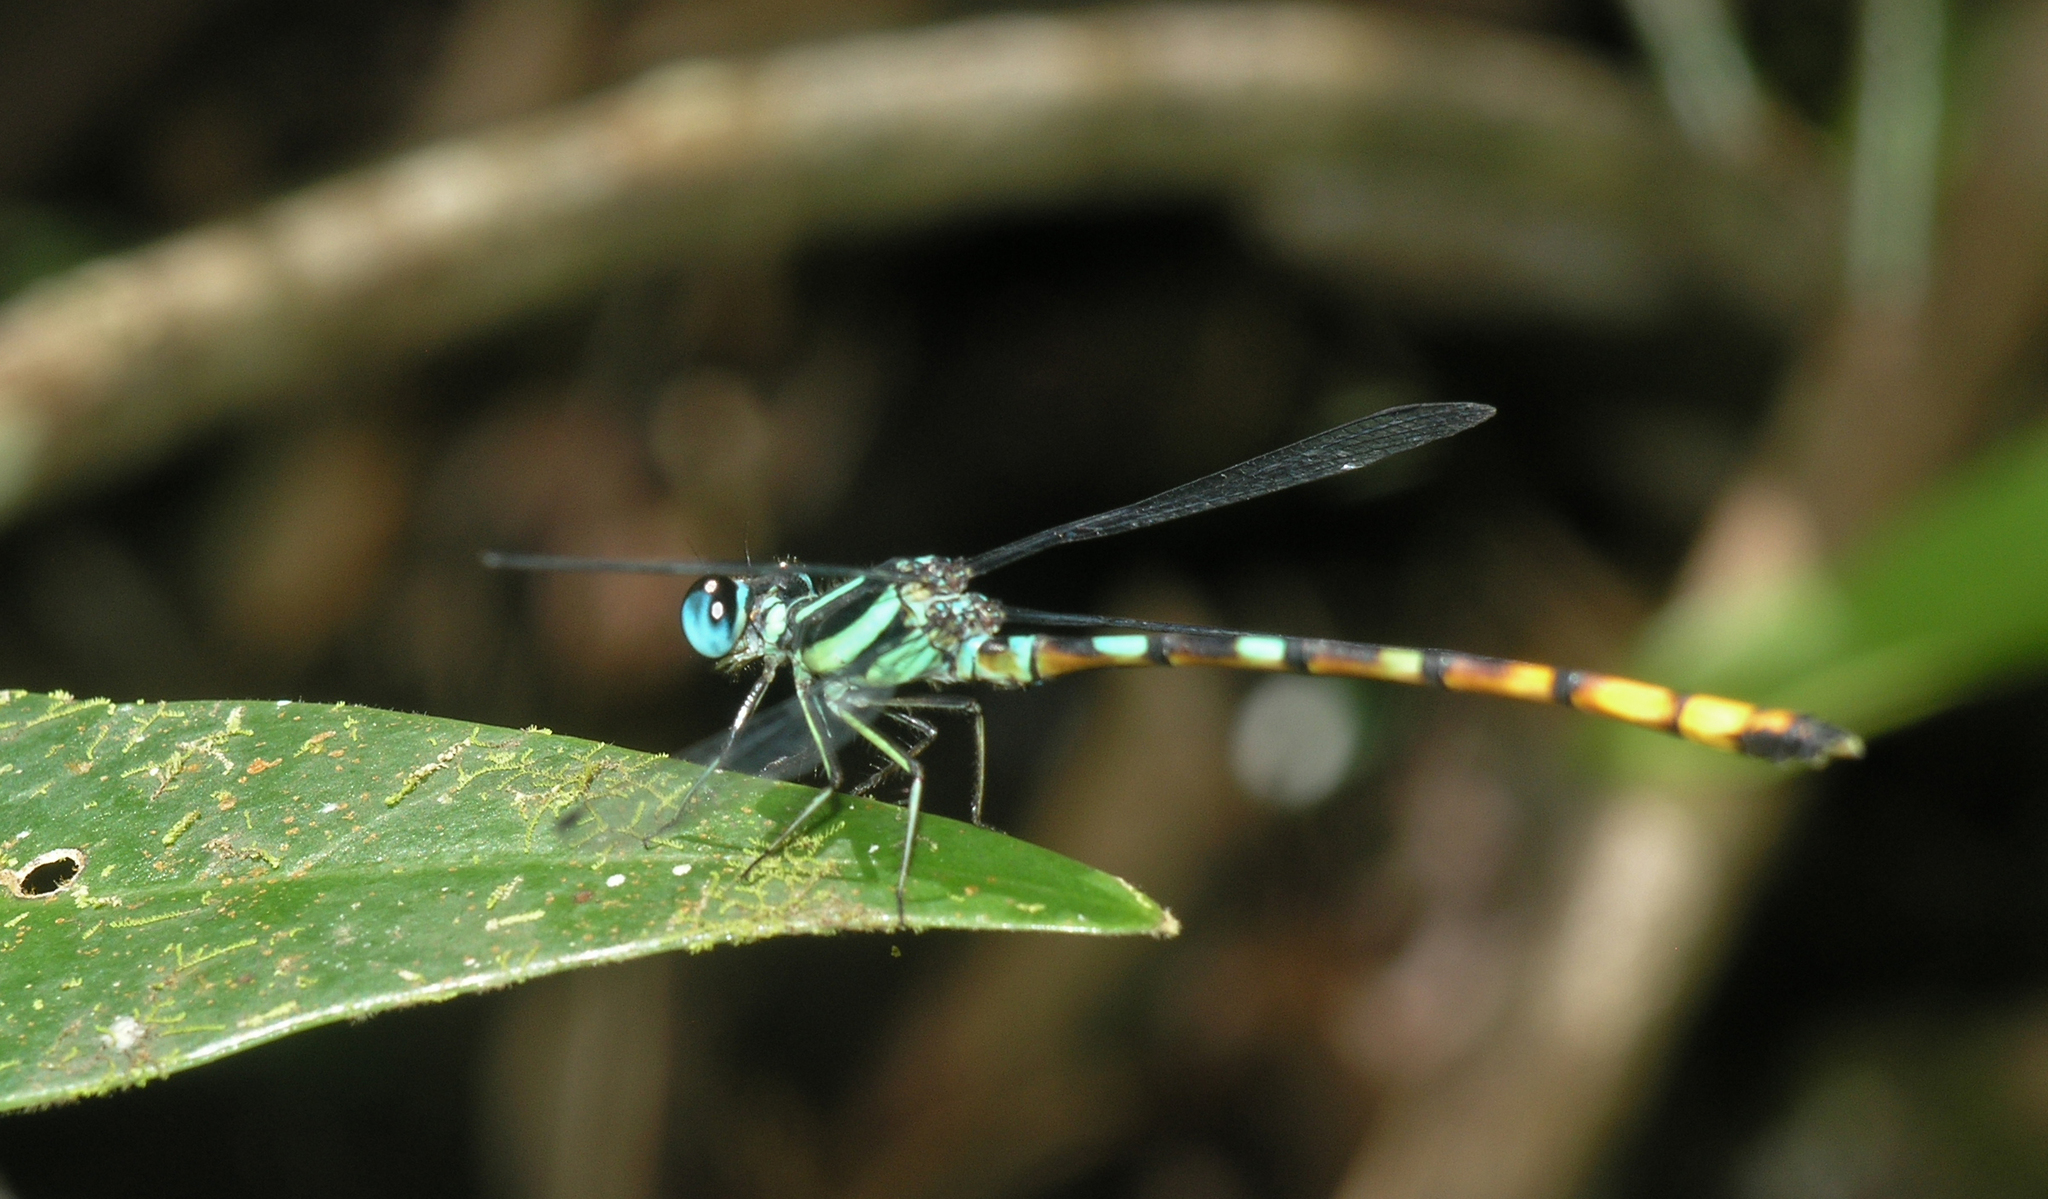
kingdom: Animalia
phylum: Arthropoda
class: Insecta
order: Odonata
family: Philosinidae
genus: Rhinagrion
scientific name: Rhinagrion viridatum
